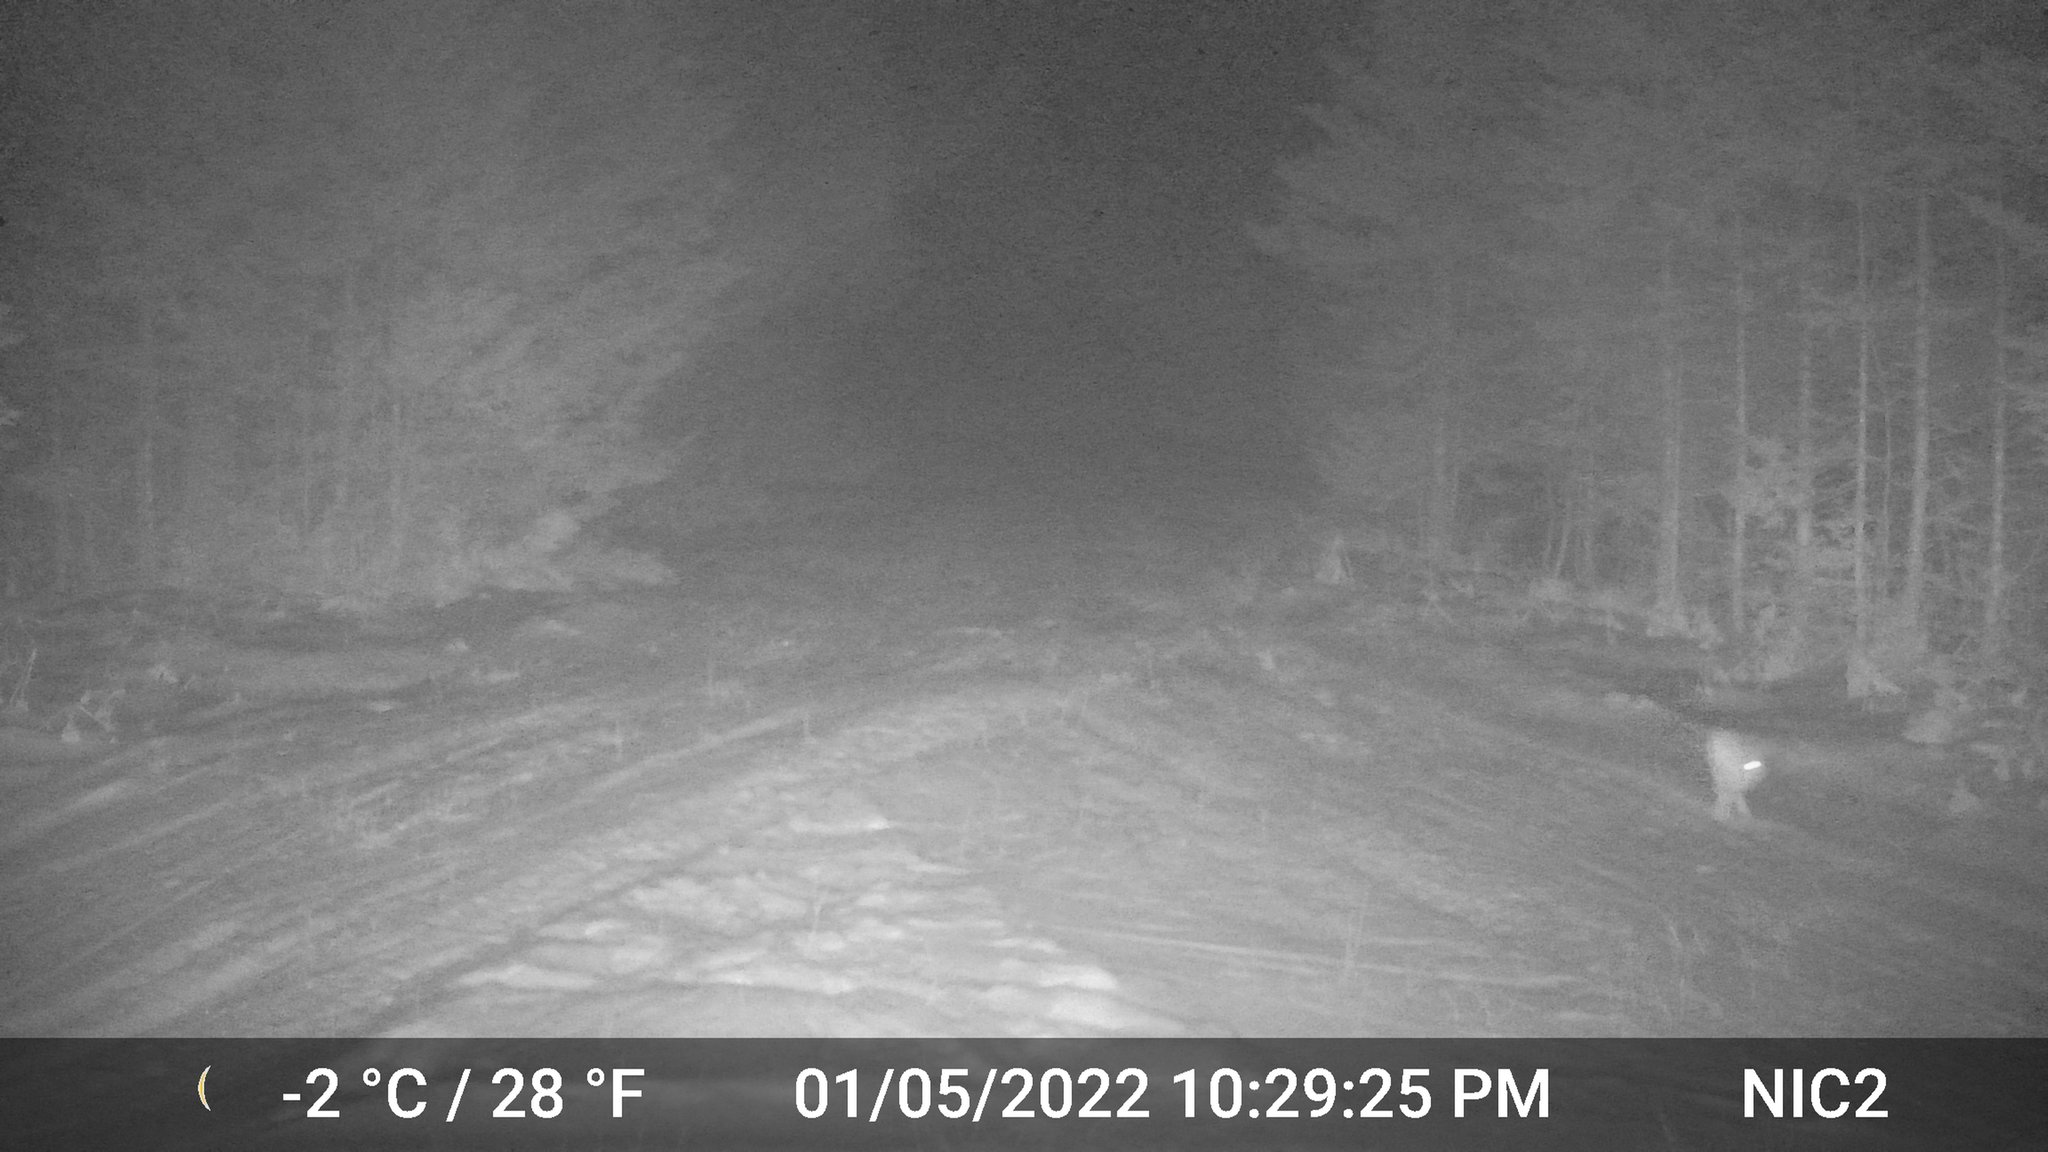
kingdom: Animalia
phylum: Chordata
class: Mammalia
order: Lagomorpha
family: Leporidae
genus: Lepus
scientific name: Lepus americanus
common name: Snowshoe hare
